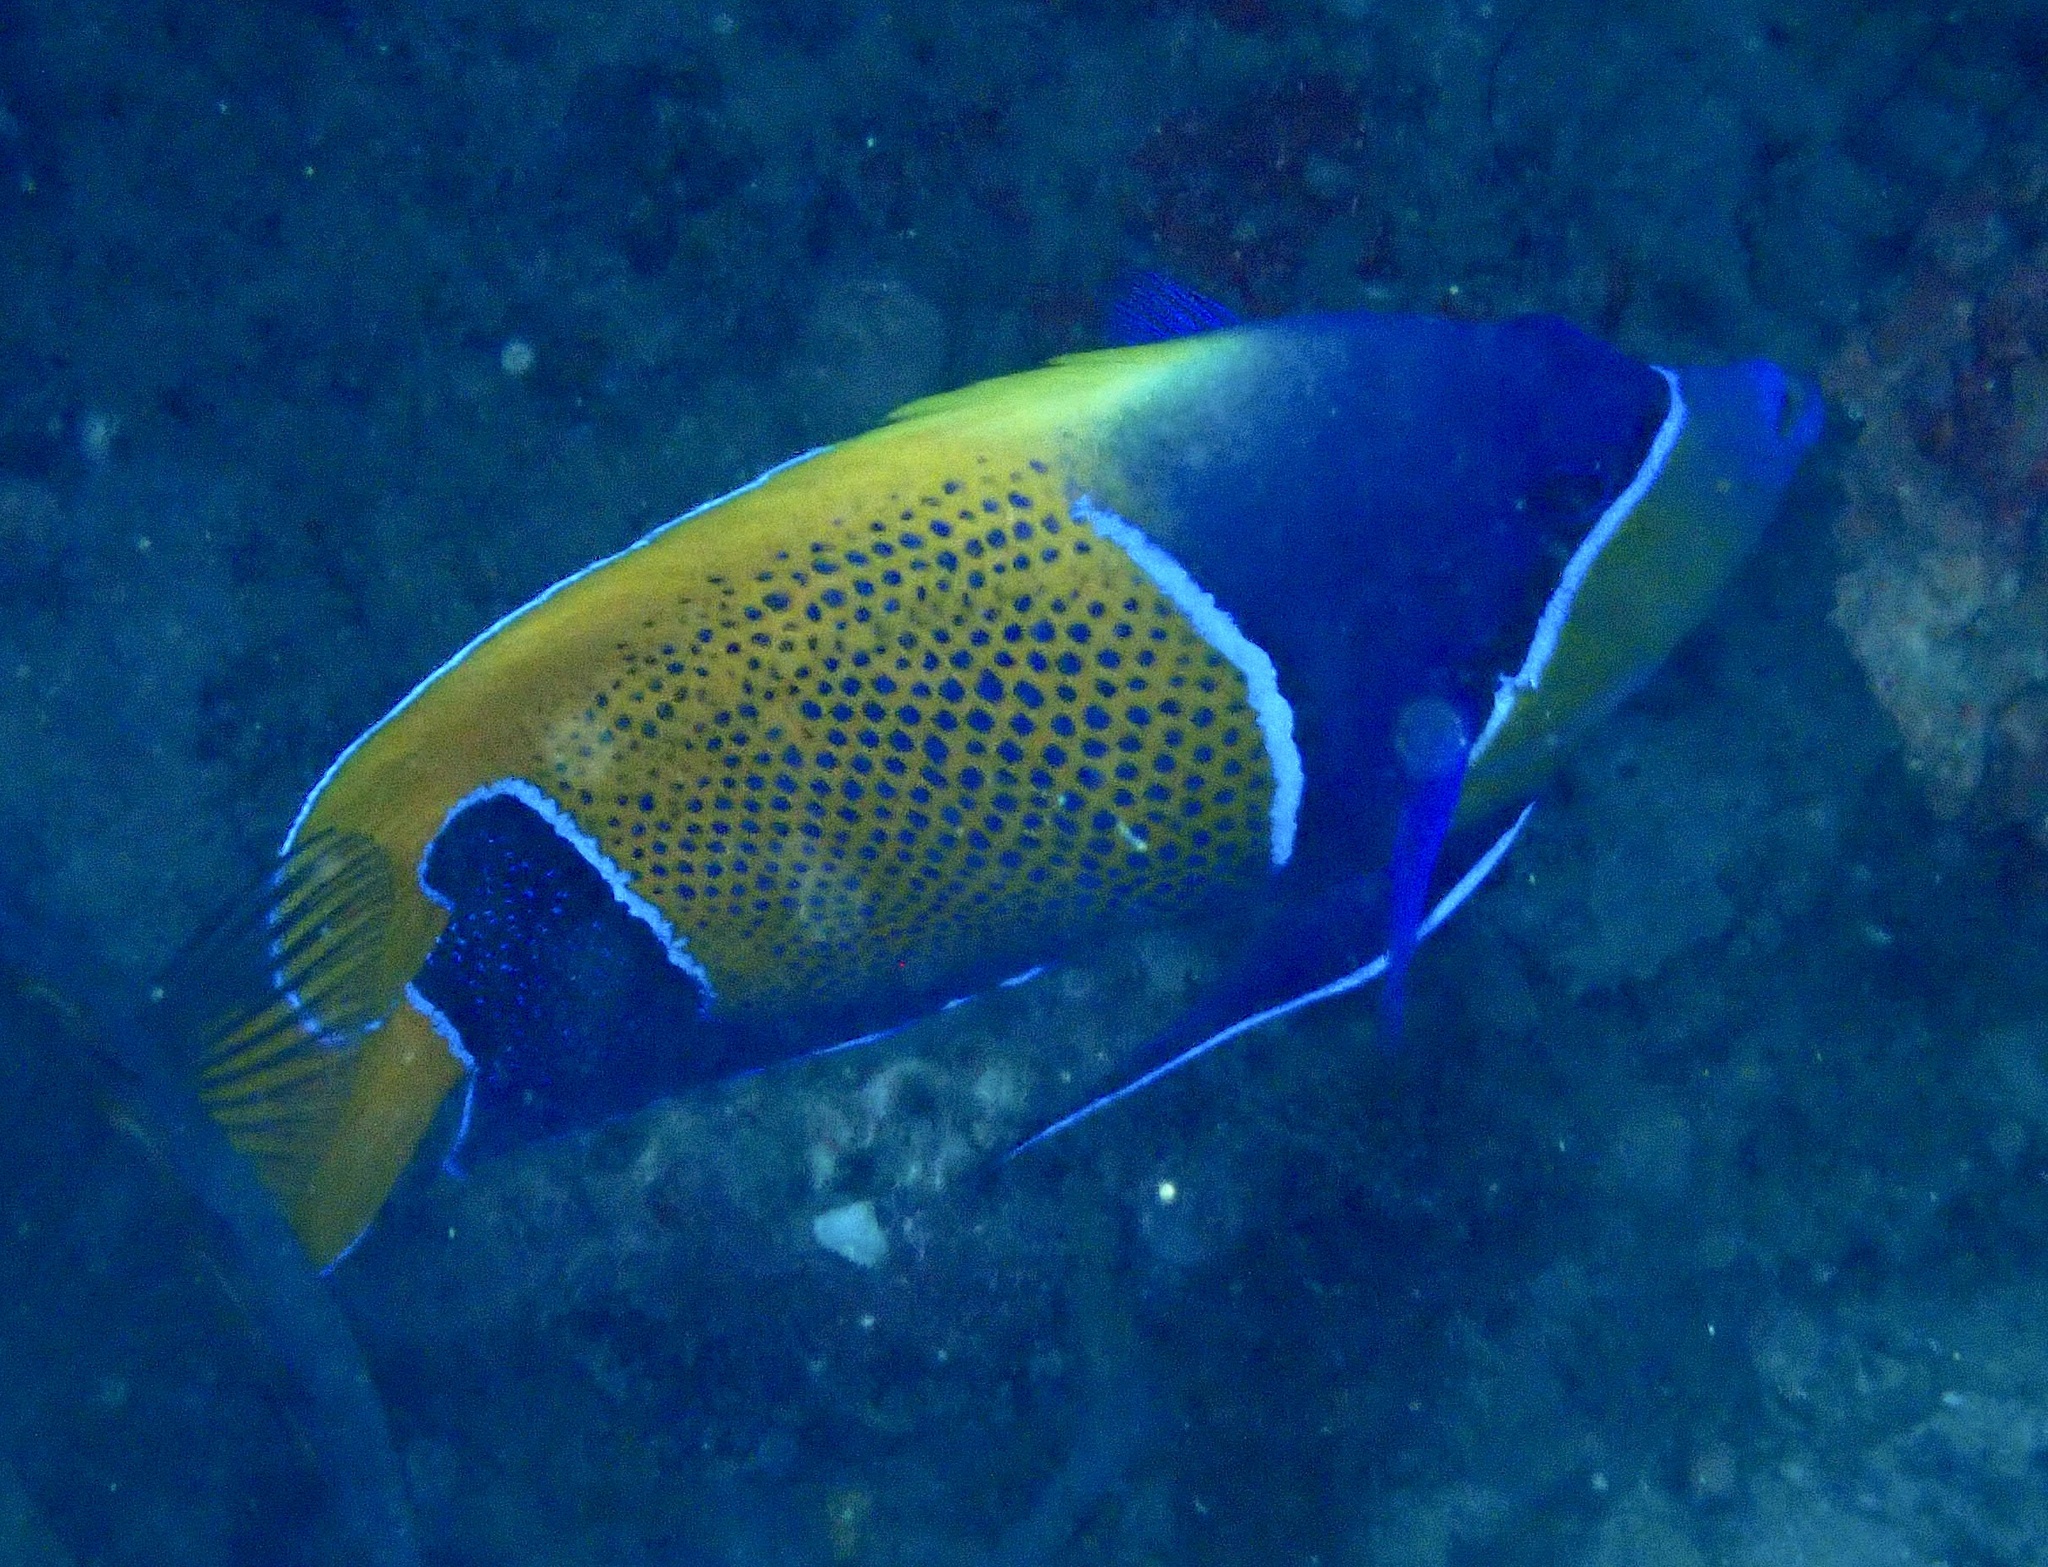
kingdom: Animalia
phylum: Chordata
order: Perciformes
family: Pomacanthidae
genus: Pomacanthus
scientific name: Pomacanthus navarchus
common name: Blue-girdled angelfish
